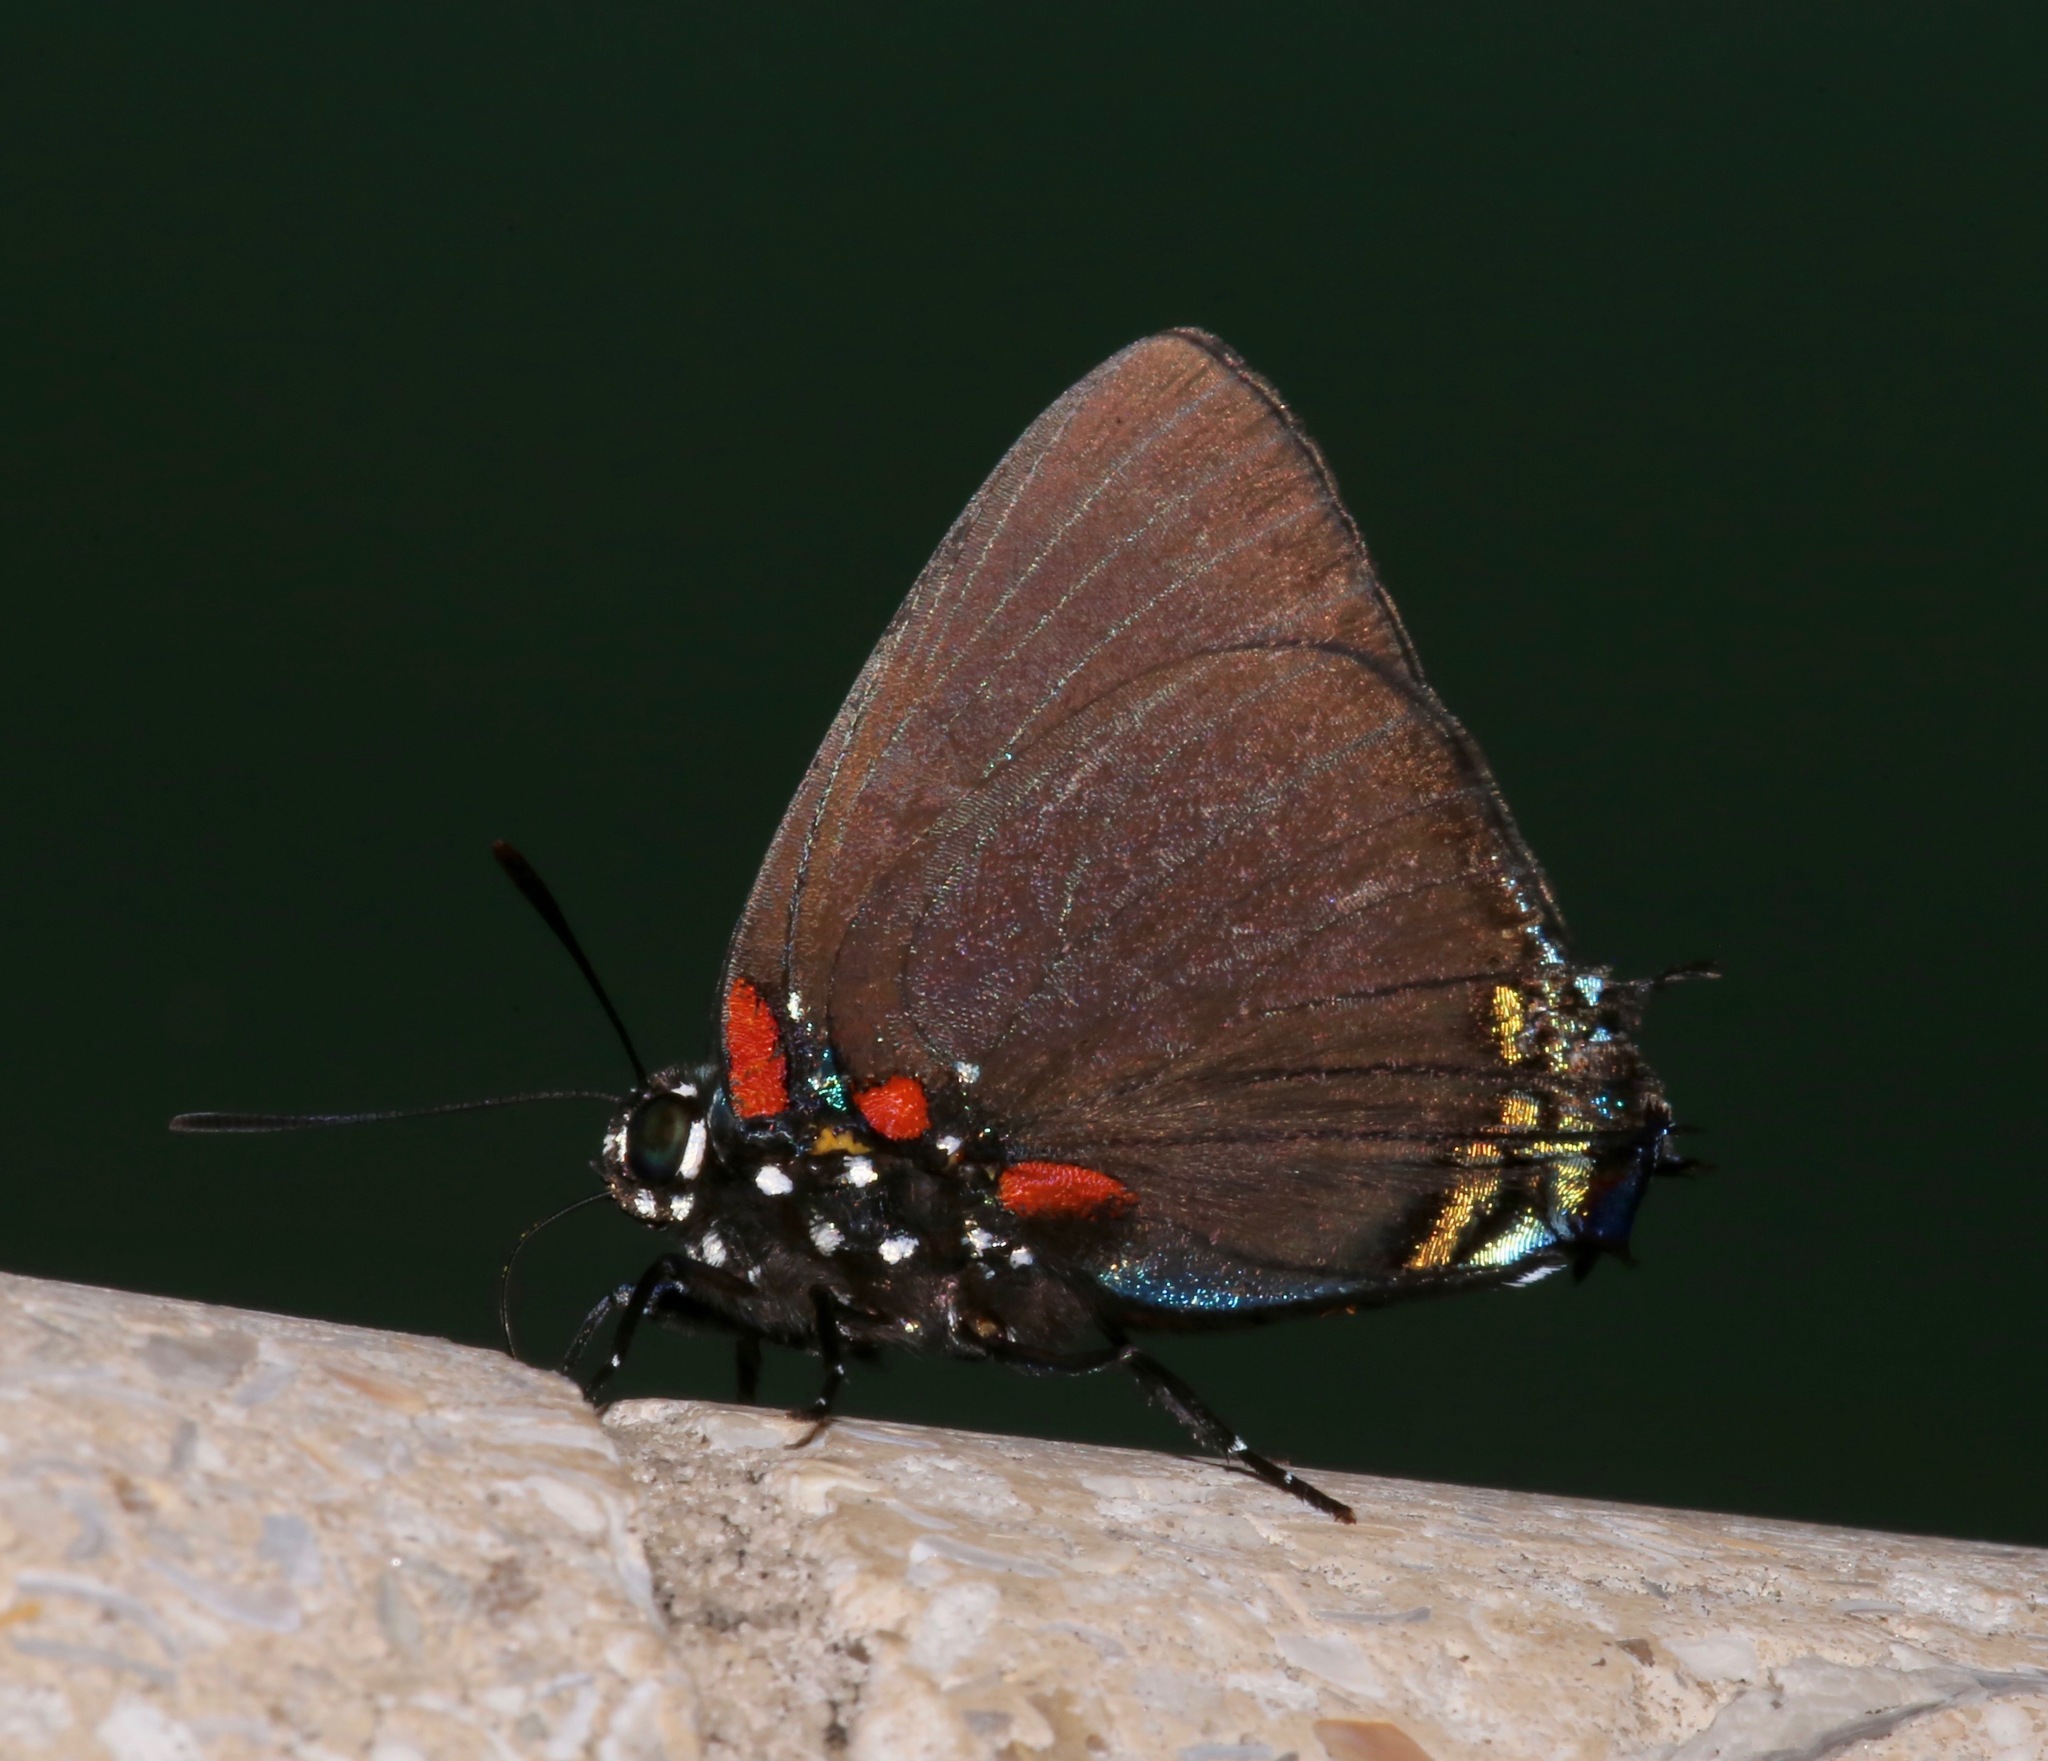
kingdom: Animalia
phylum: Arthropoda
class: Insecta
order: Lepidoptera
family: Lycaenidae
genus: Atlides
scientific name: Atlides halesus
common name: Great purple hairstreak
